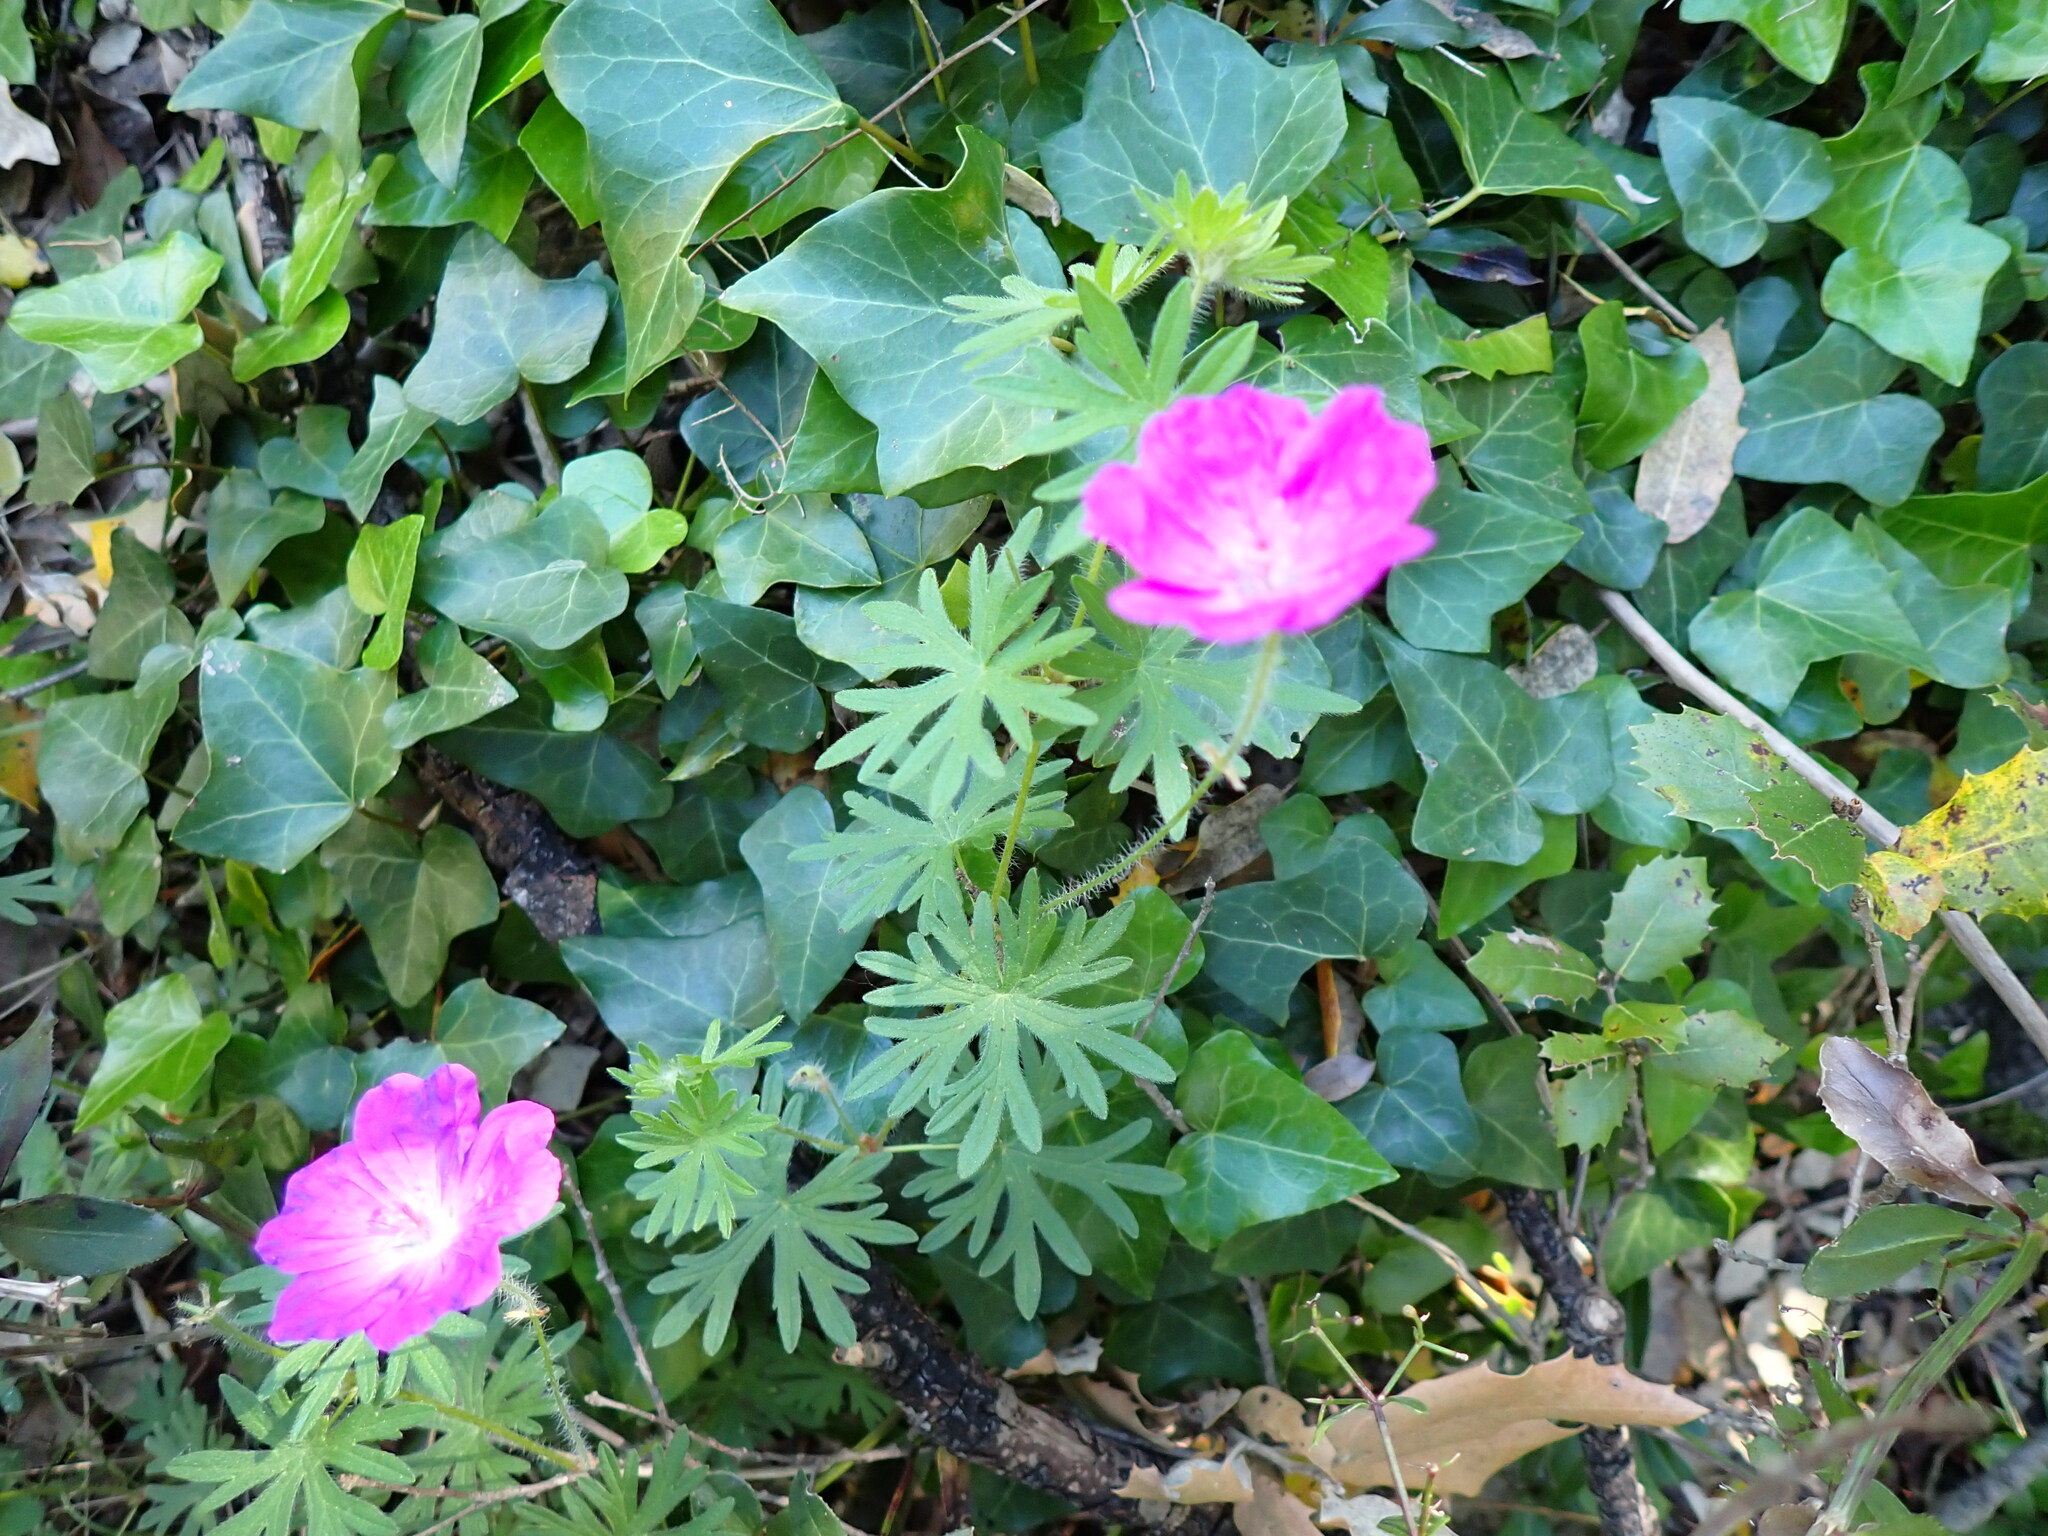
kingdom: Plantae
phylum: Tracheophyta
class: Magnoliopsida
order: Geraniales
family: Geraniaceae
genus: Geranium
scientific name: Geranium sanguineum
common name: Bloody crane's-bill
